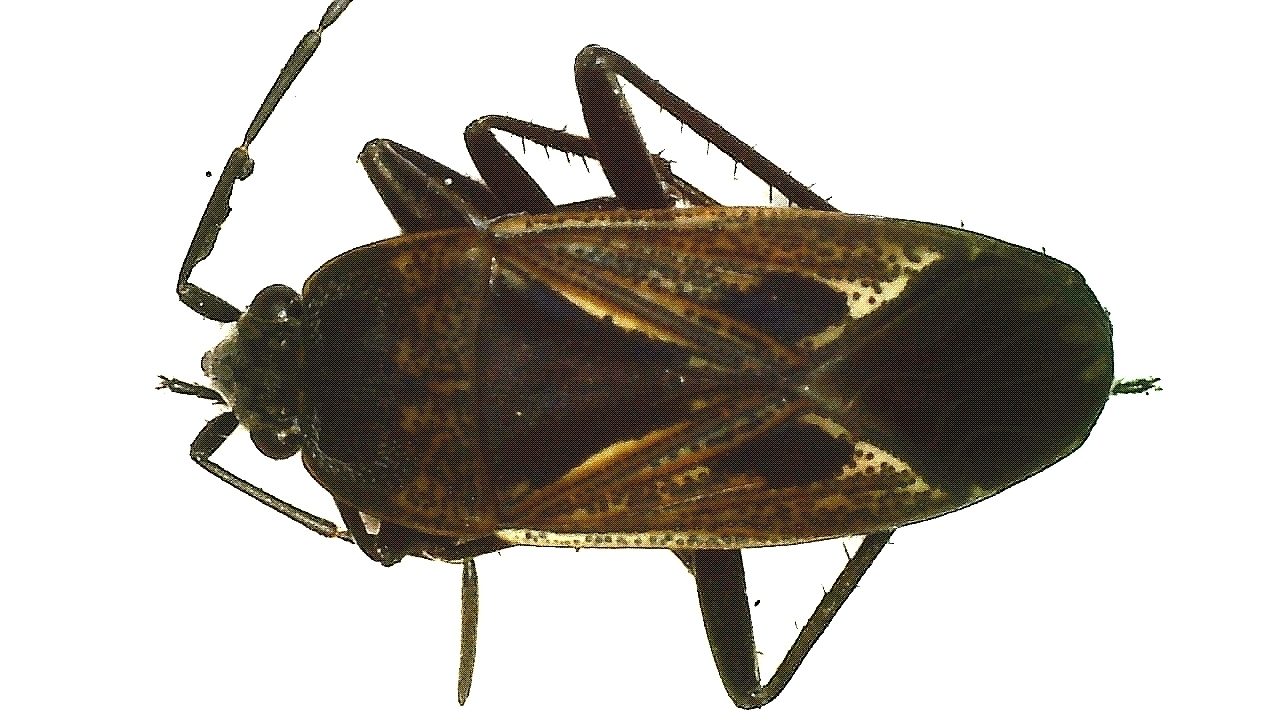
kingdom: Animalia
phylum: Arthropoda
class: Insecta
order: Hemiptera
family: Rhyparochromidae
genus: Rhyparochromus
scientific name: Rhyparochromus pini
